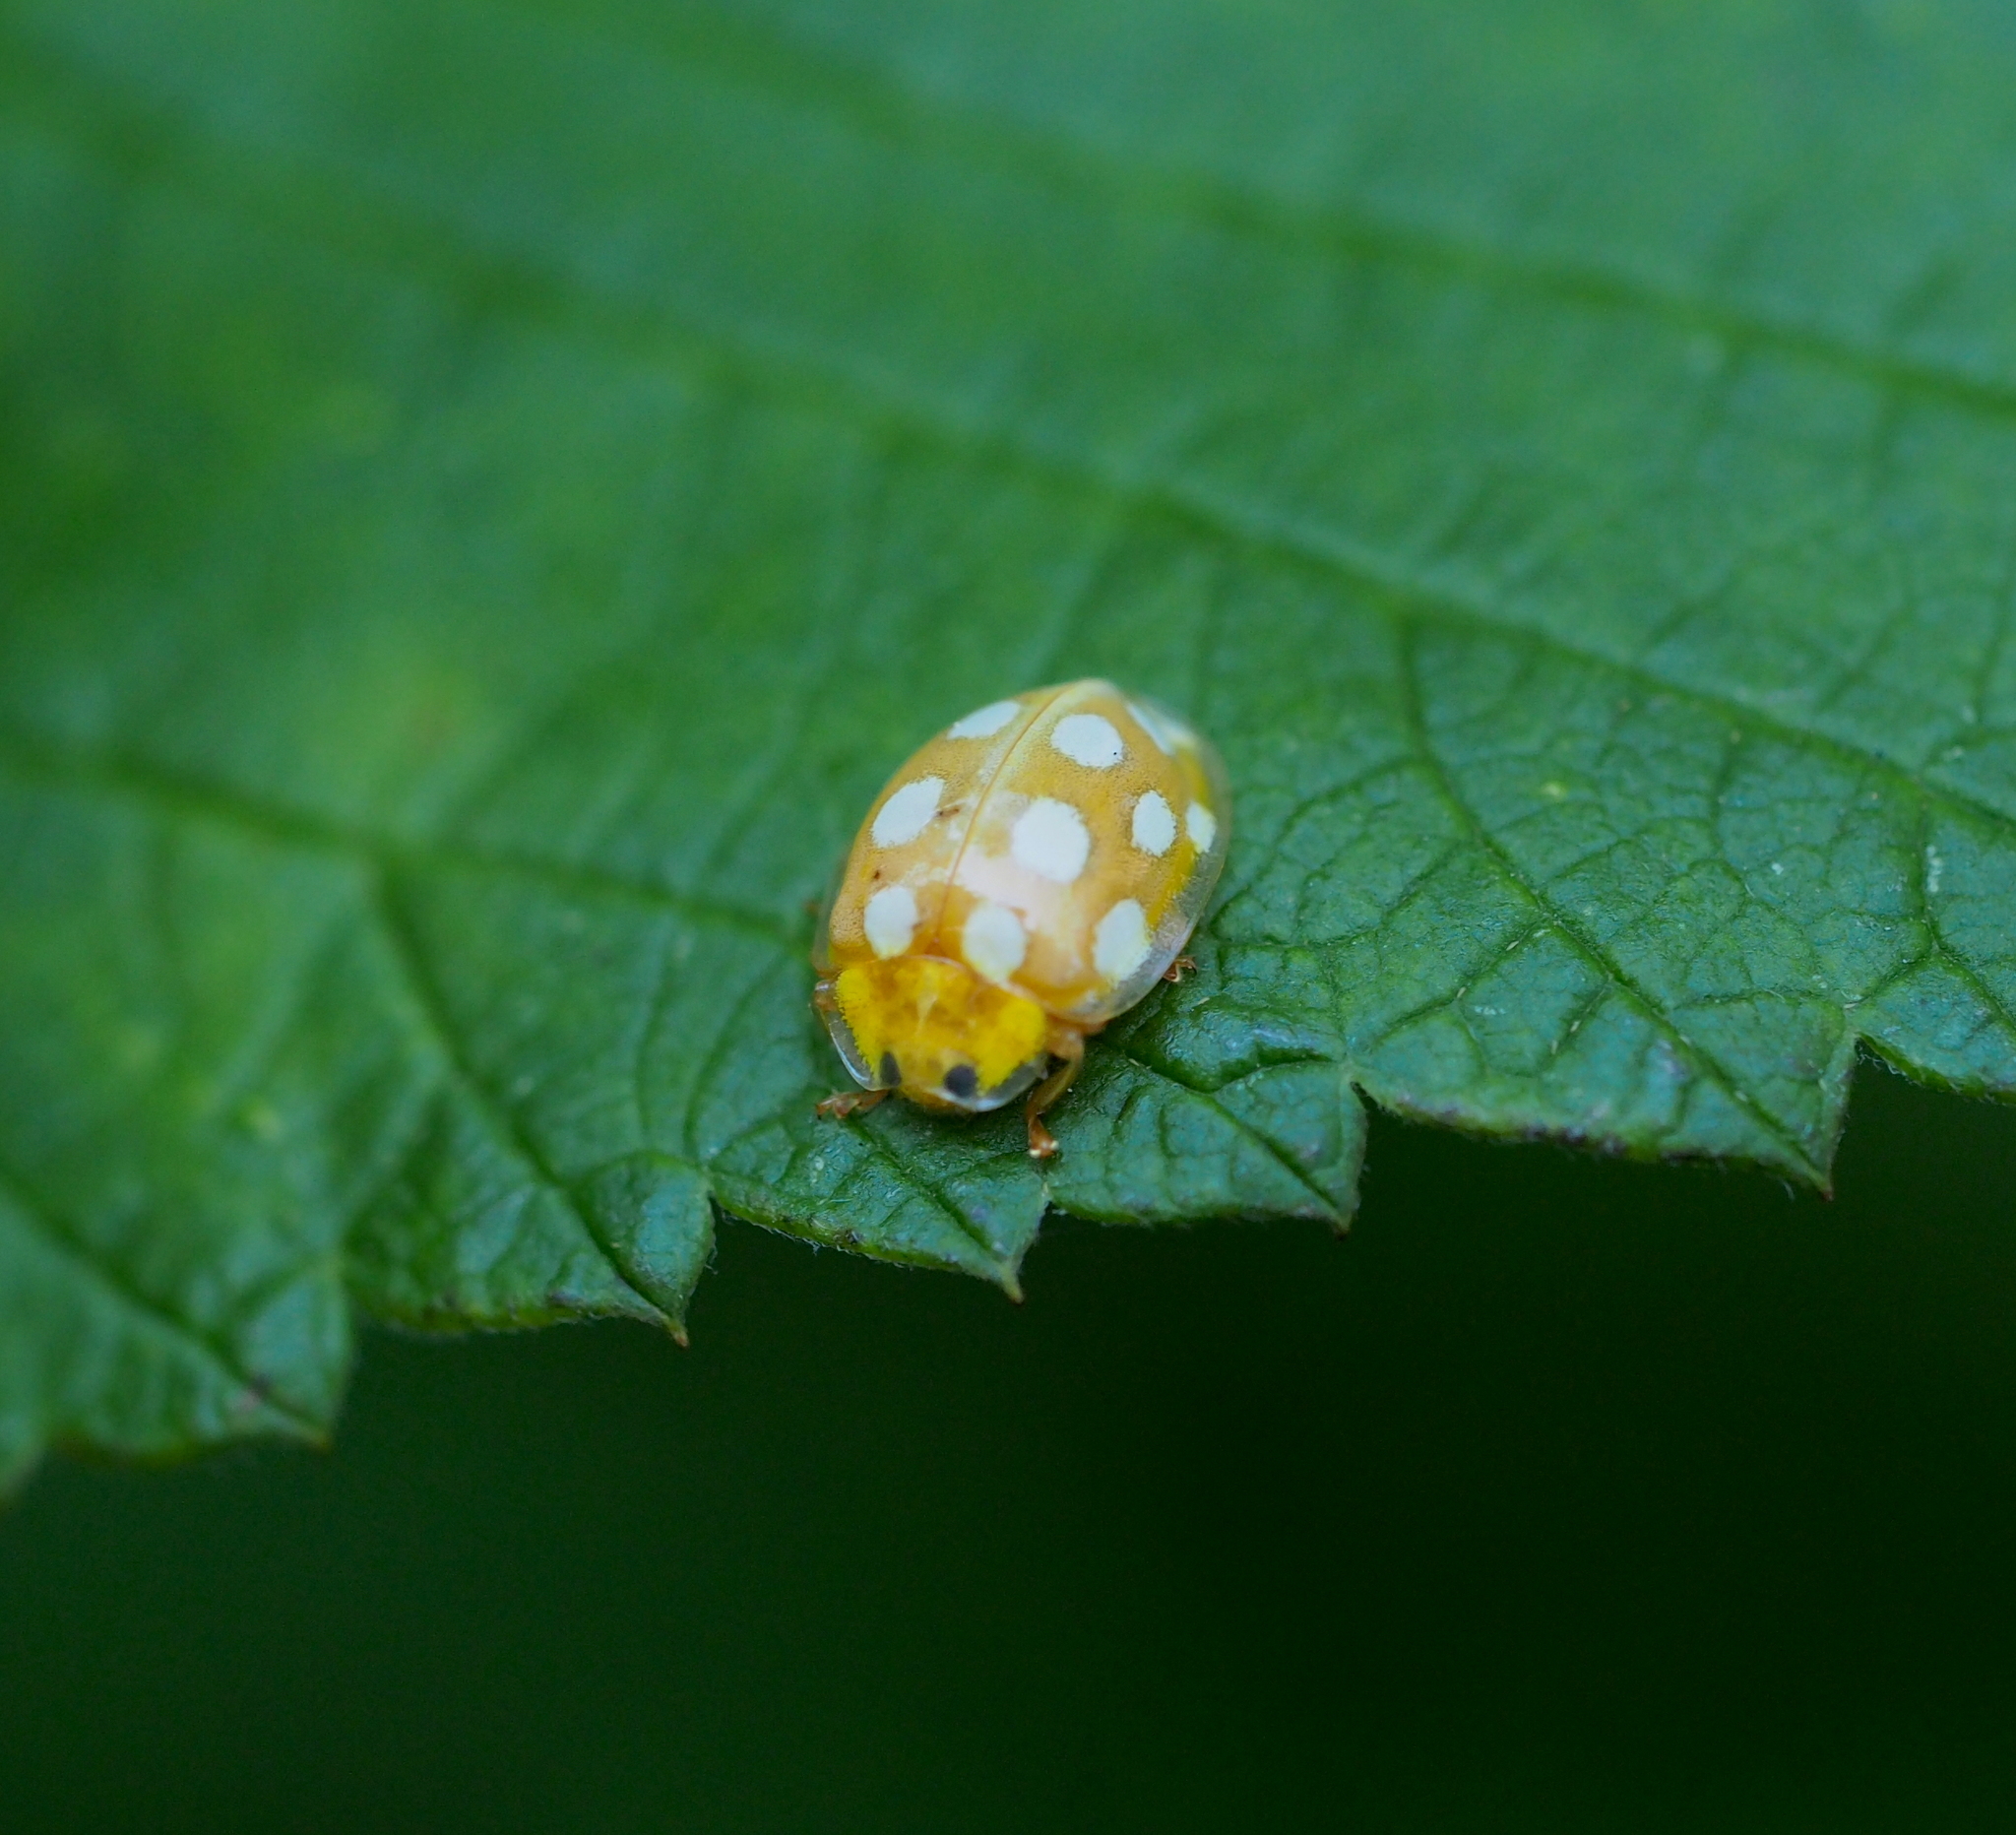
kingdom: Animalia
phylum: Arthropoda
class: Insecta
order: Coleoptera
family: Coccinellidae
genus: Halyzia
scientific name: Halyzia sedecimguttata
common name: Orange ladybird
